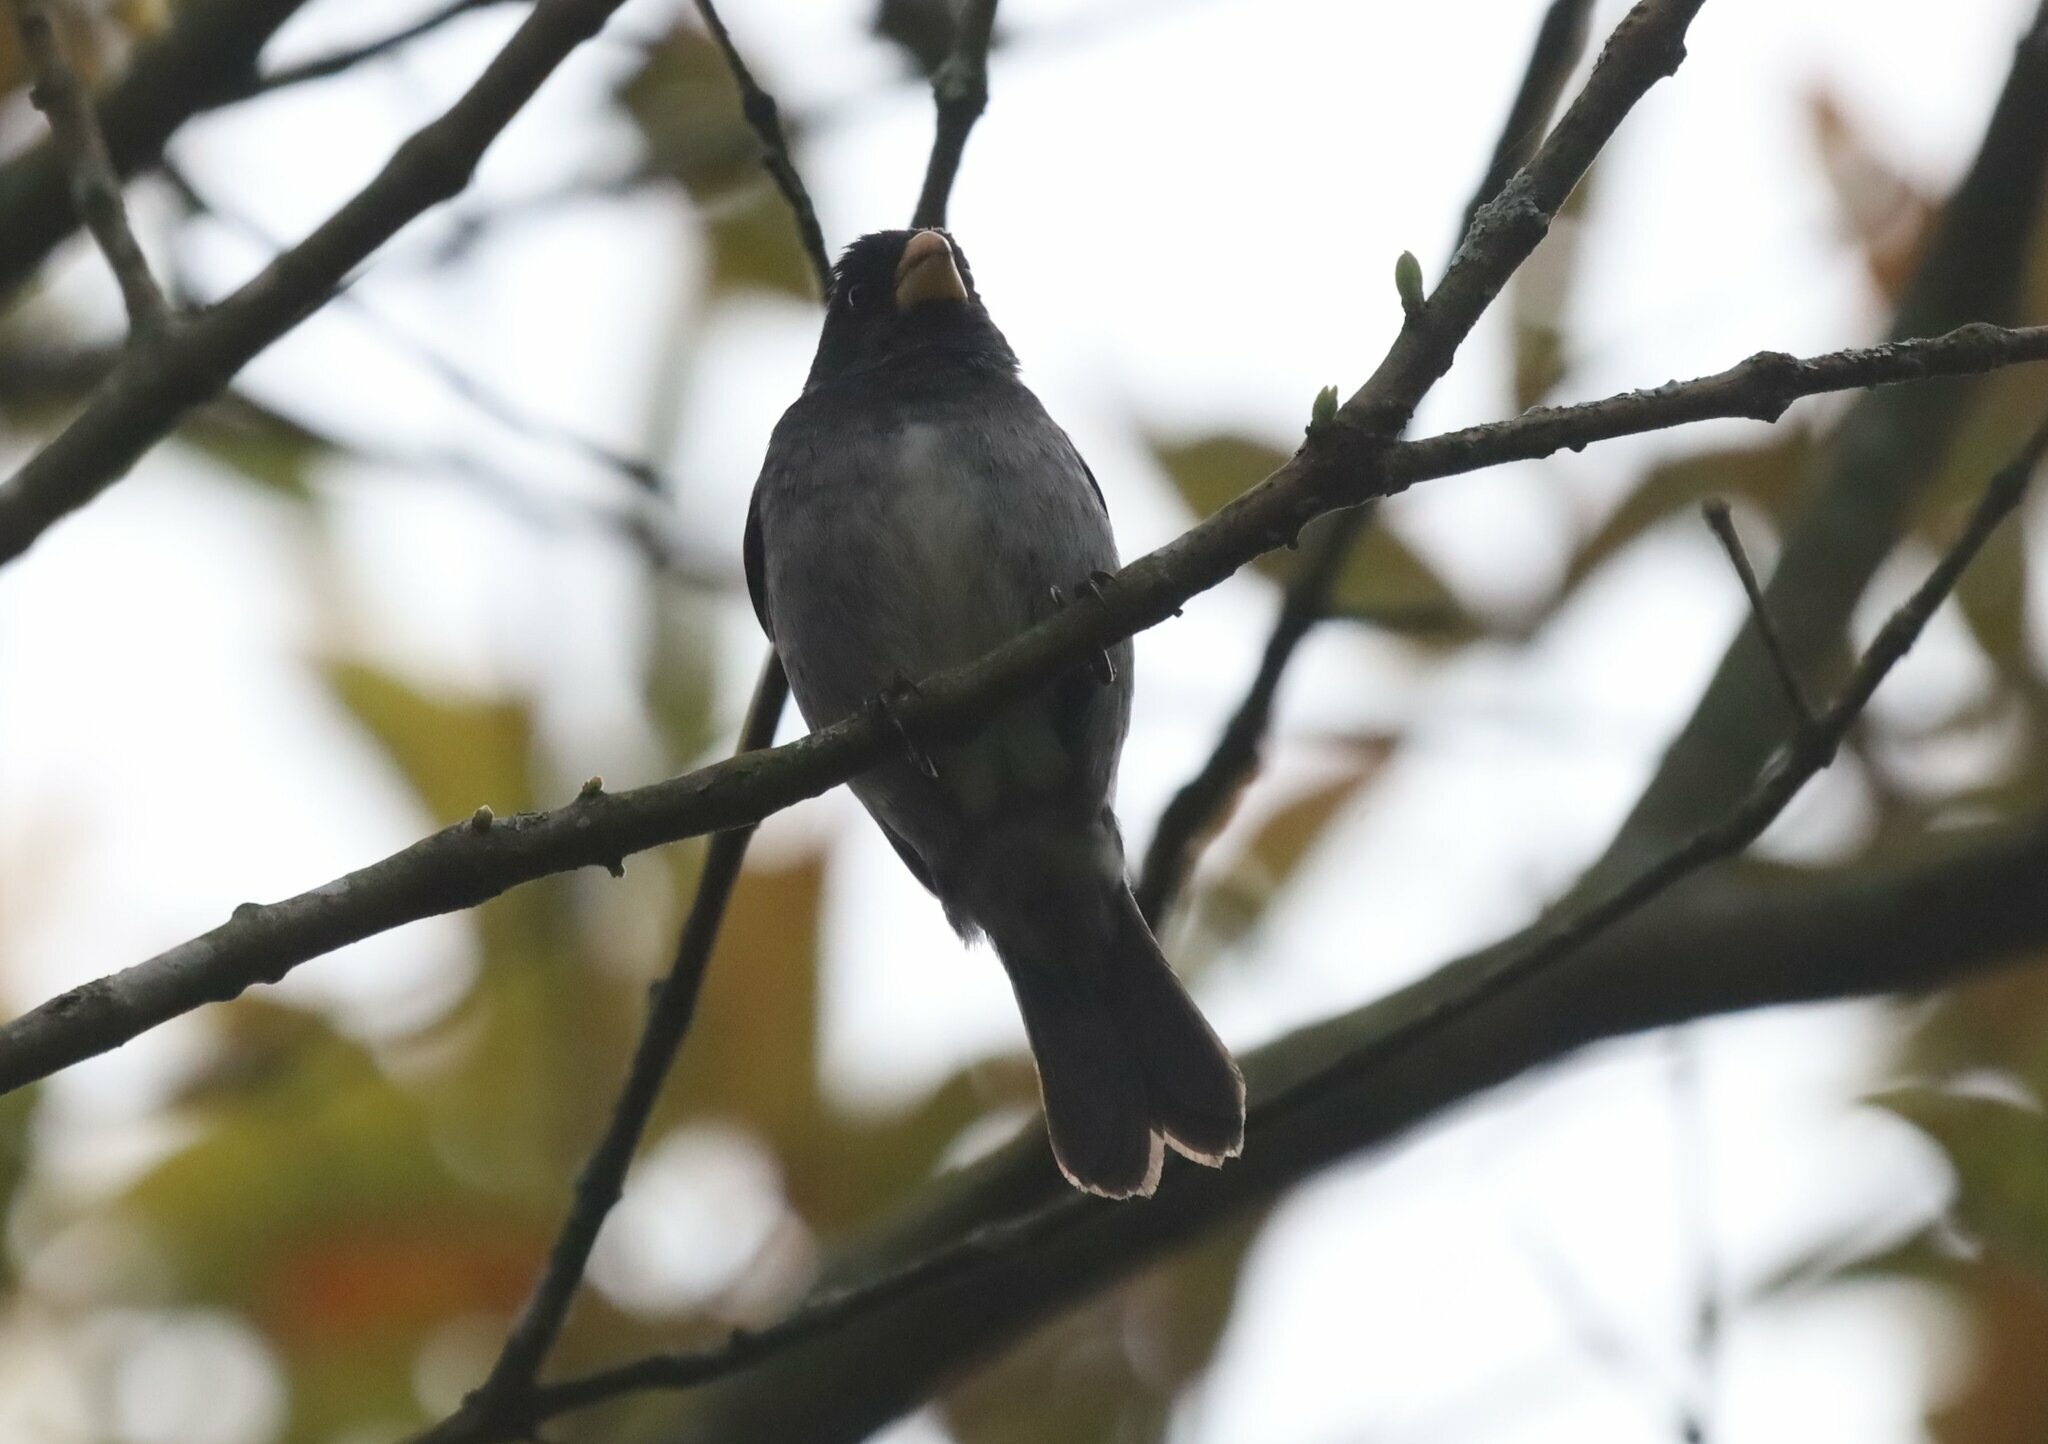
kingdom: Animalia
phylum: Chordata
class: Aves
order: Passeriformes
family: Thraupidae
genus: Sporophila
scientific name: Sporophila intermedia
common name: Grey seedeater
